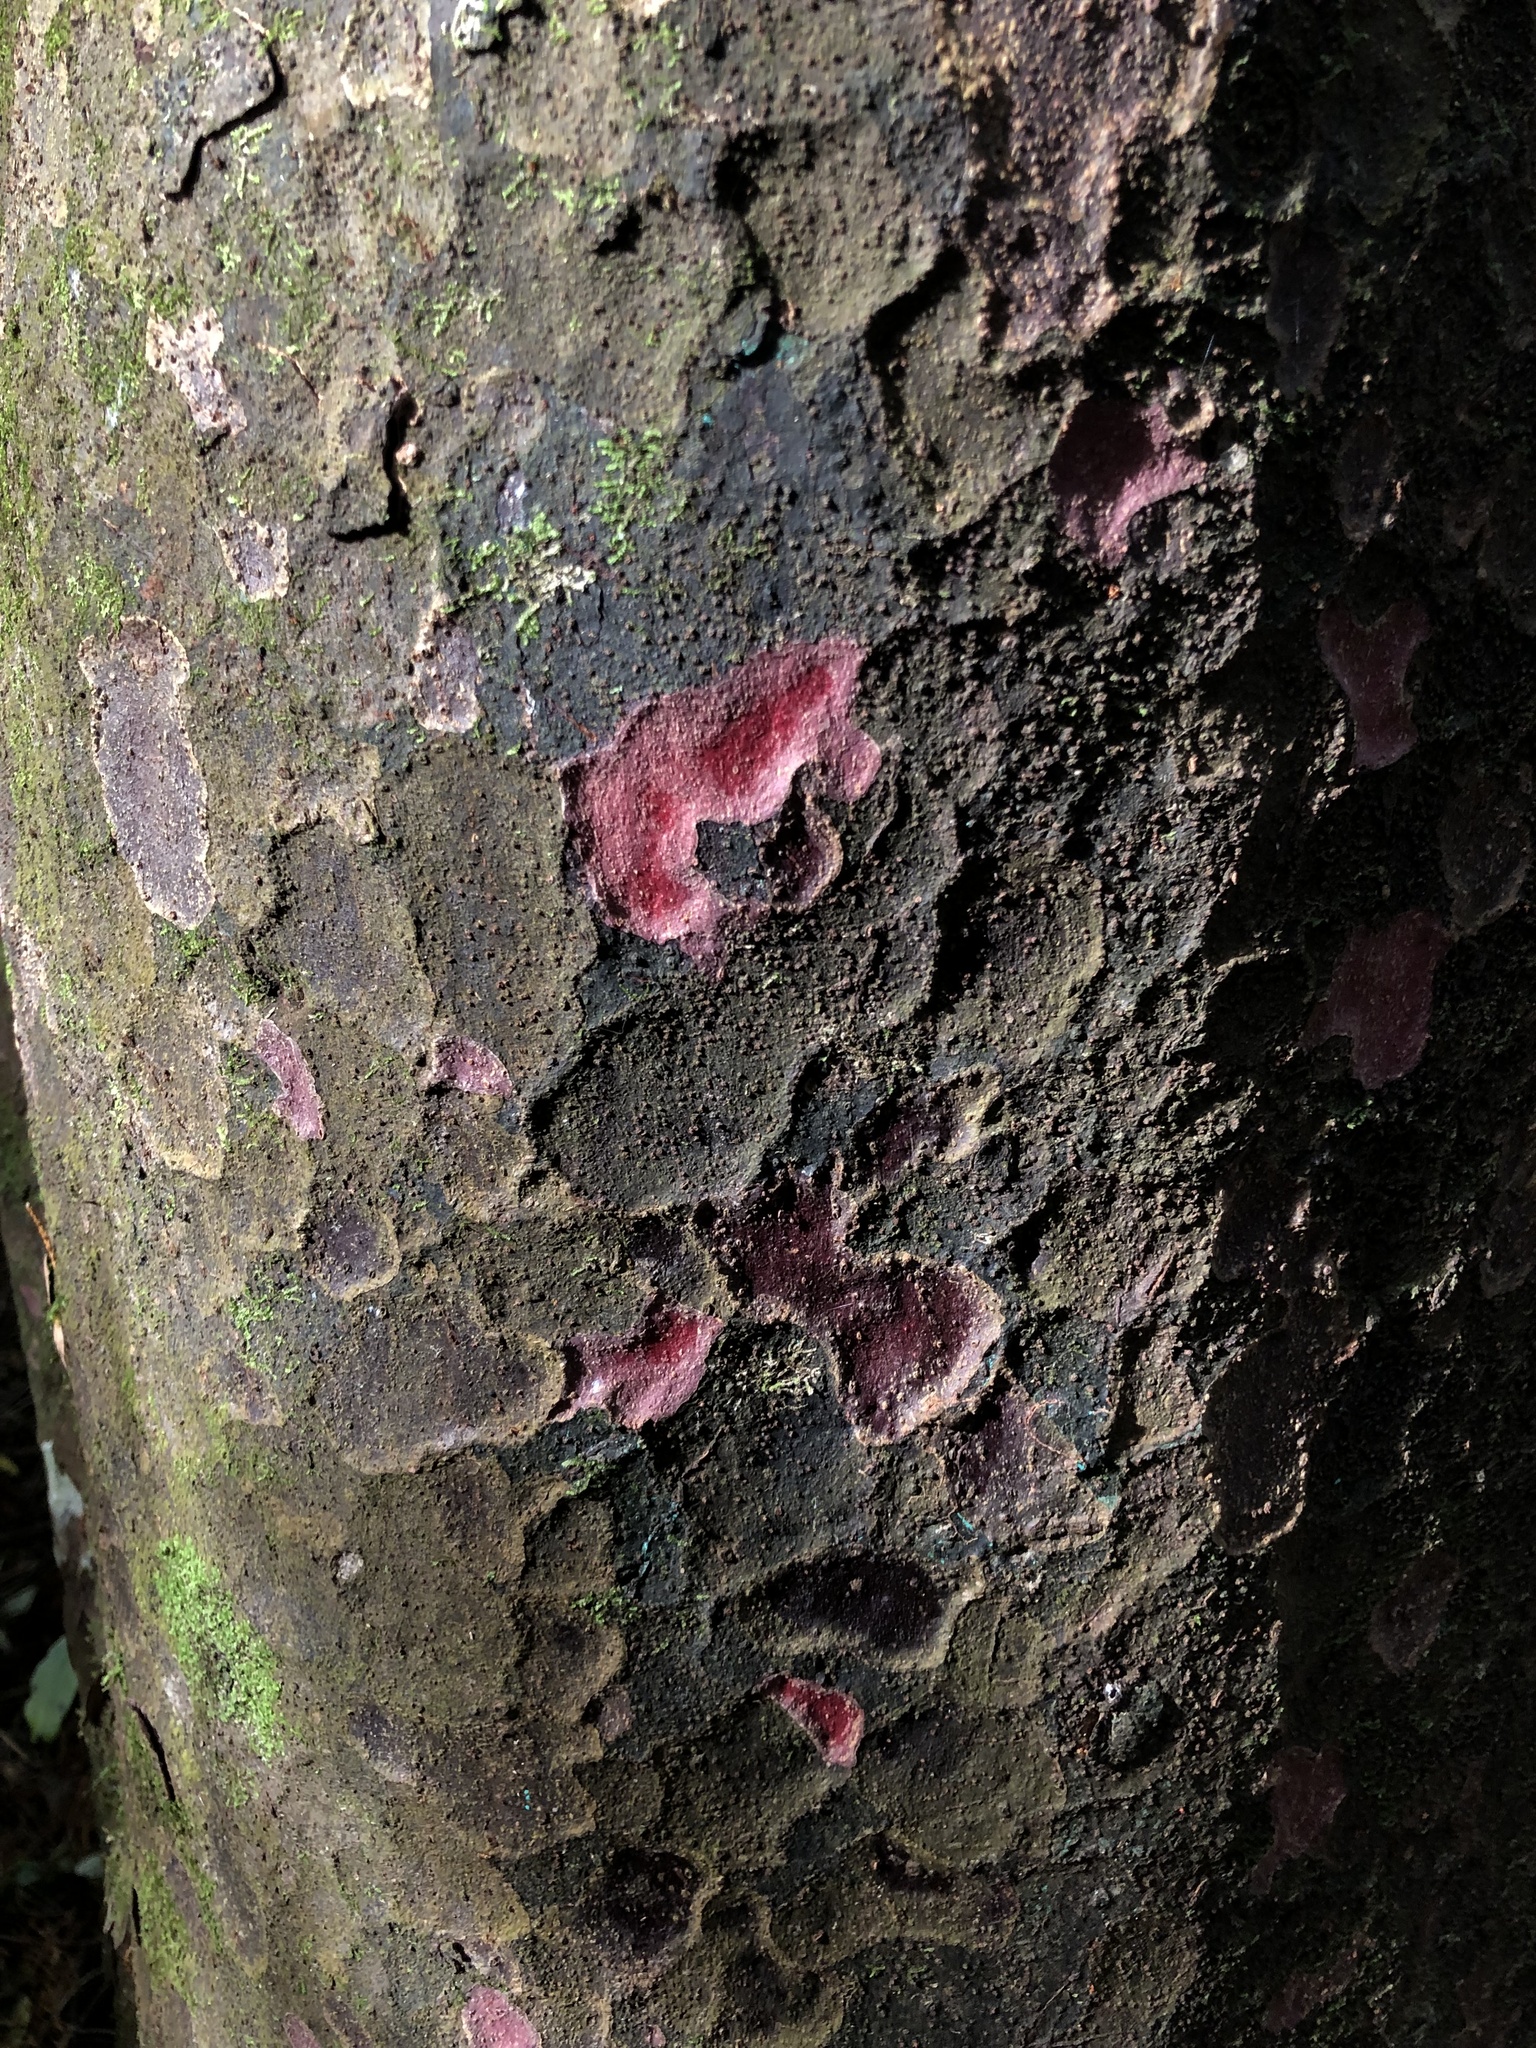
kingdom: Plantae
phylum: Tracheophyta
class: Pinopsida
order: Pinales
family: Podocarpaceae
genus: Prumnopitys
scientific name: Prumnopitys taxifolia
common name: Matai
